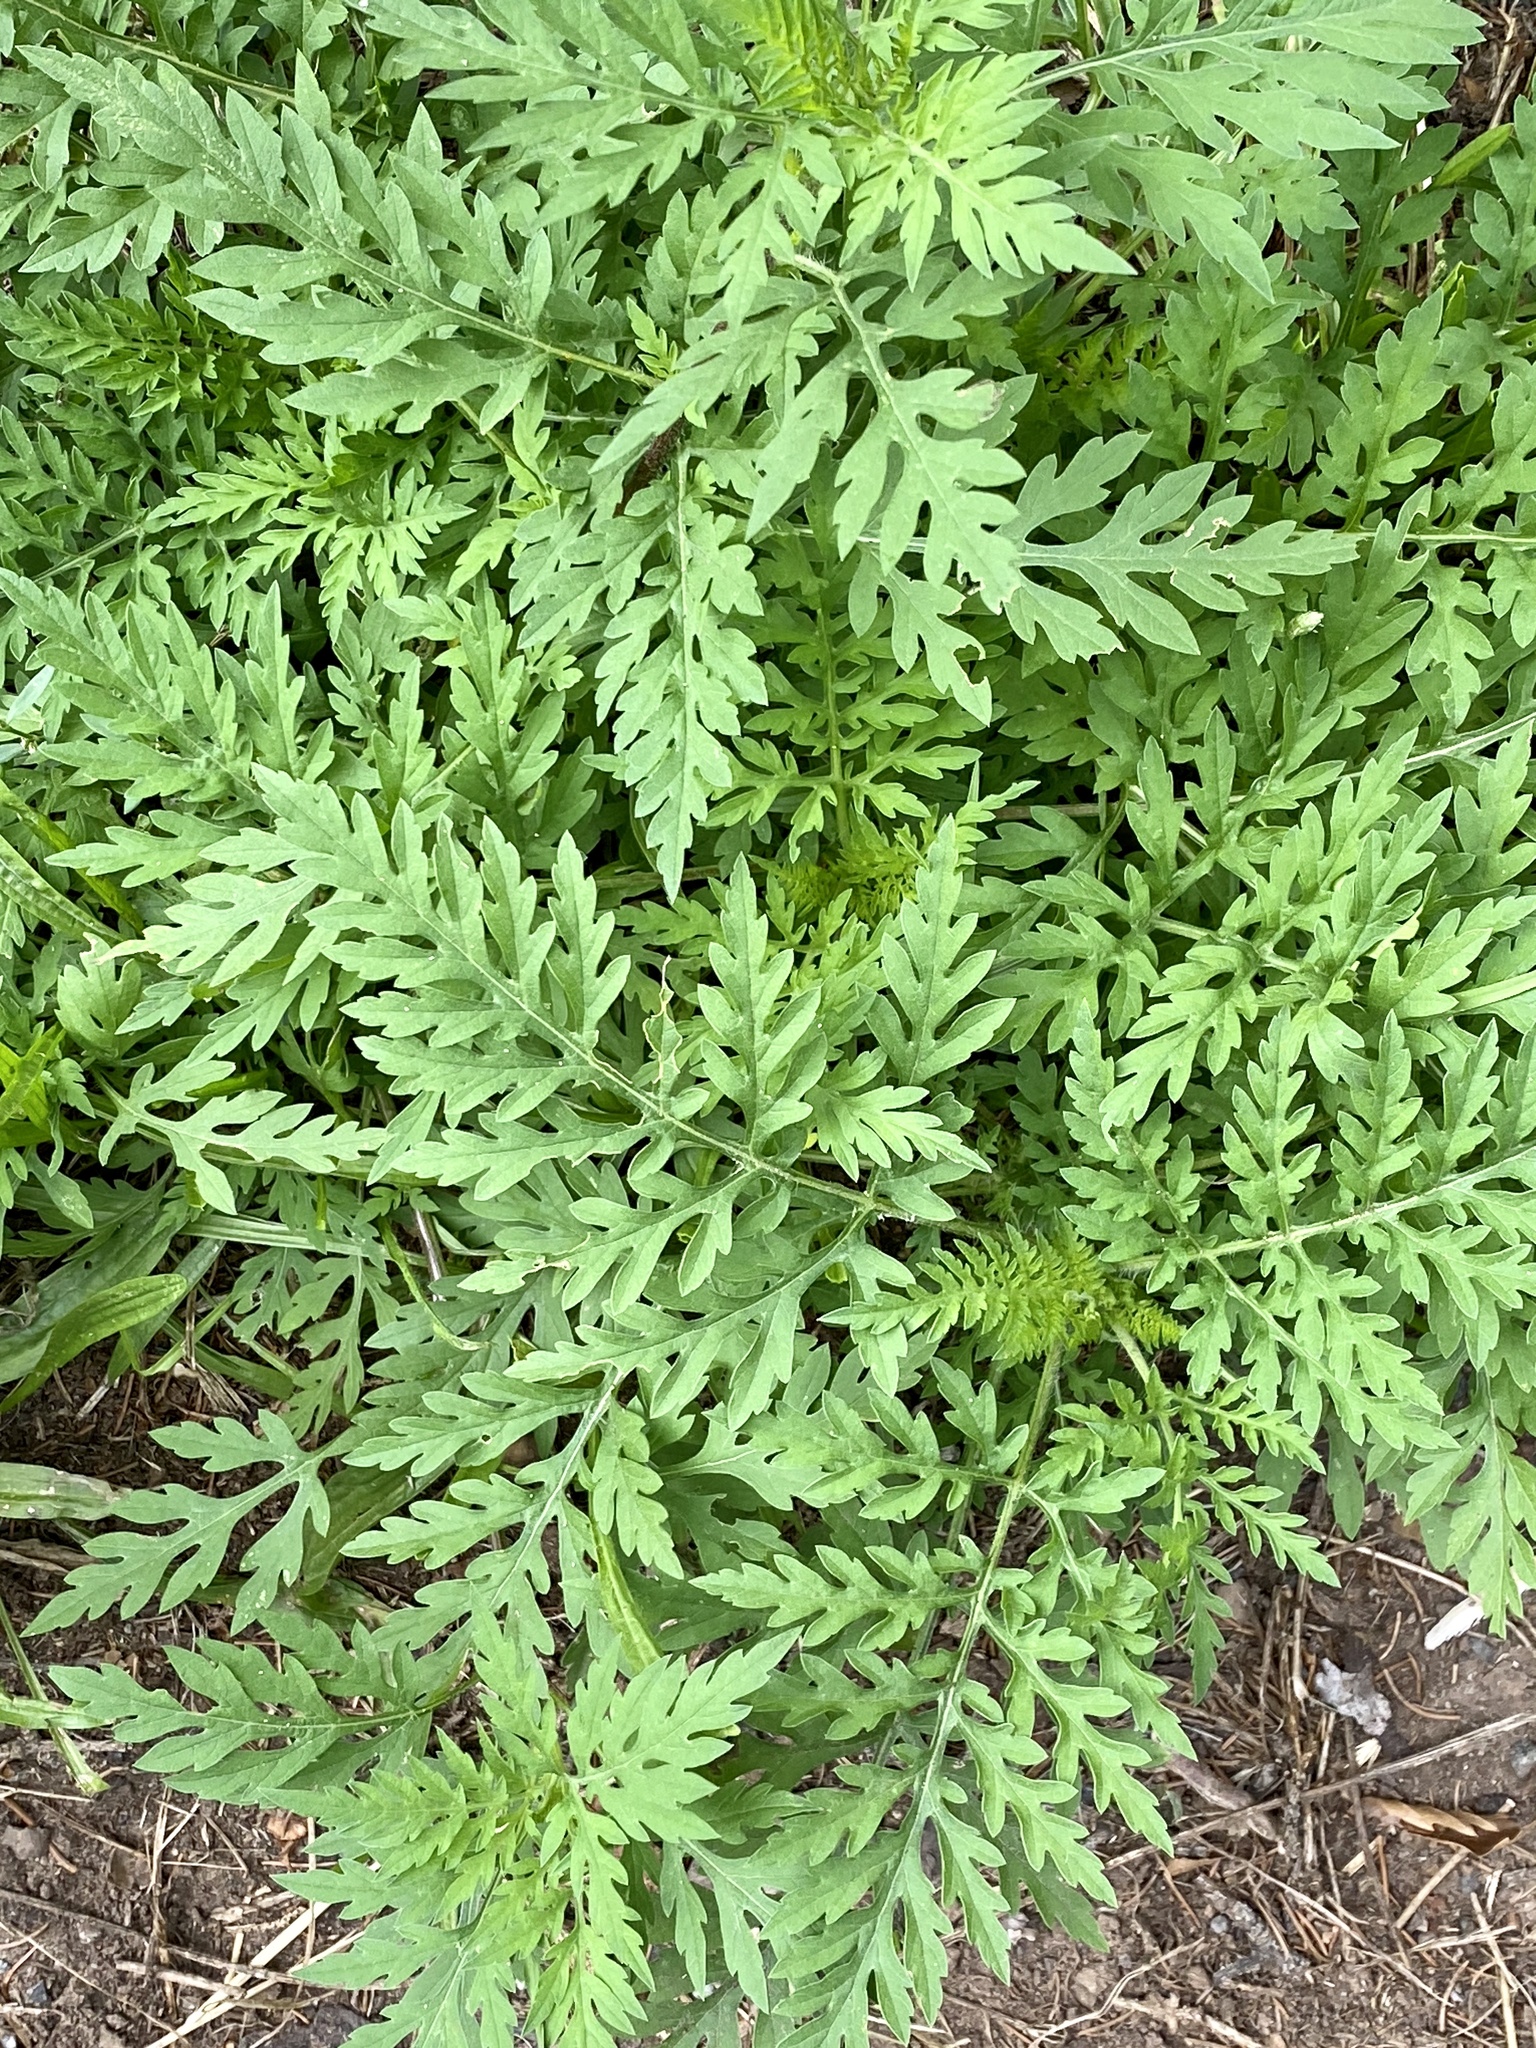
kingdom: Plantae
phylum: Tracheophyta
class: Magnoliopsida
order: Asterales
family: Asteraceae
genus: Ambrosia
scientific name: Ambrosia artemisiifolia
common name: Annual ragweed
